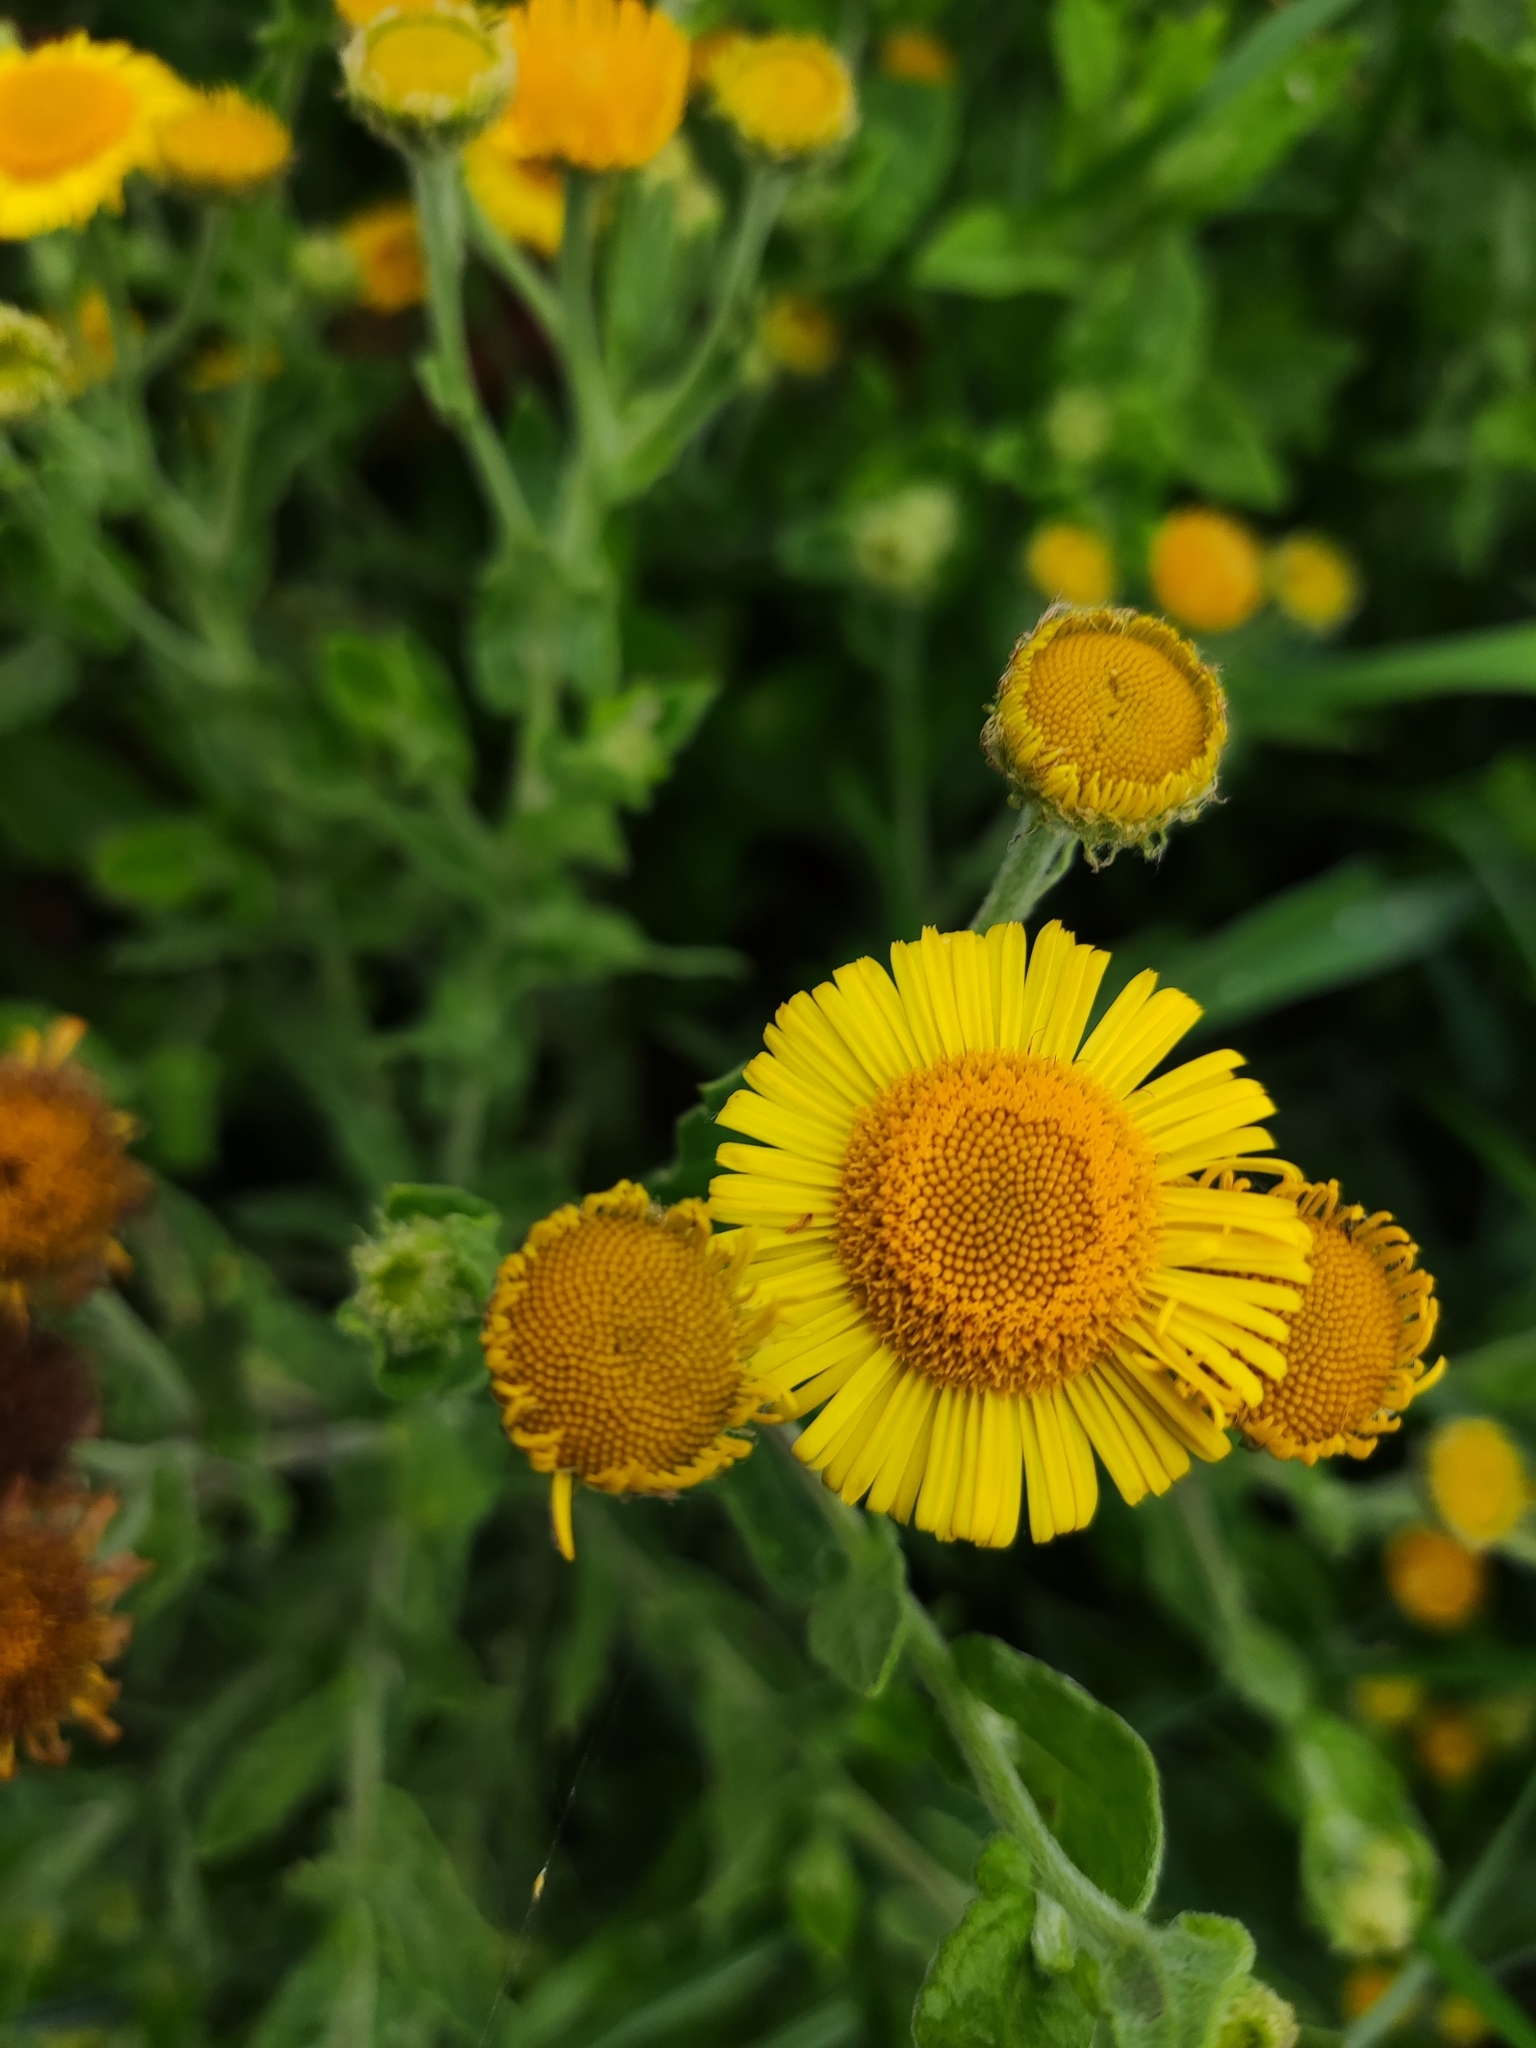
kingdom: Plantae
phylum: Tracheophyta
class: Magnoliopsida
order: Asterales
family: Asteraceae
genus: Pulicaria
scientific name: Pulicaria dysenterica
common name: Common fleabane
